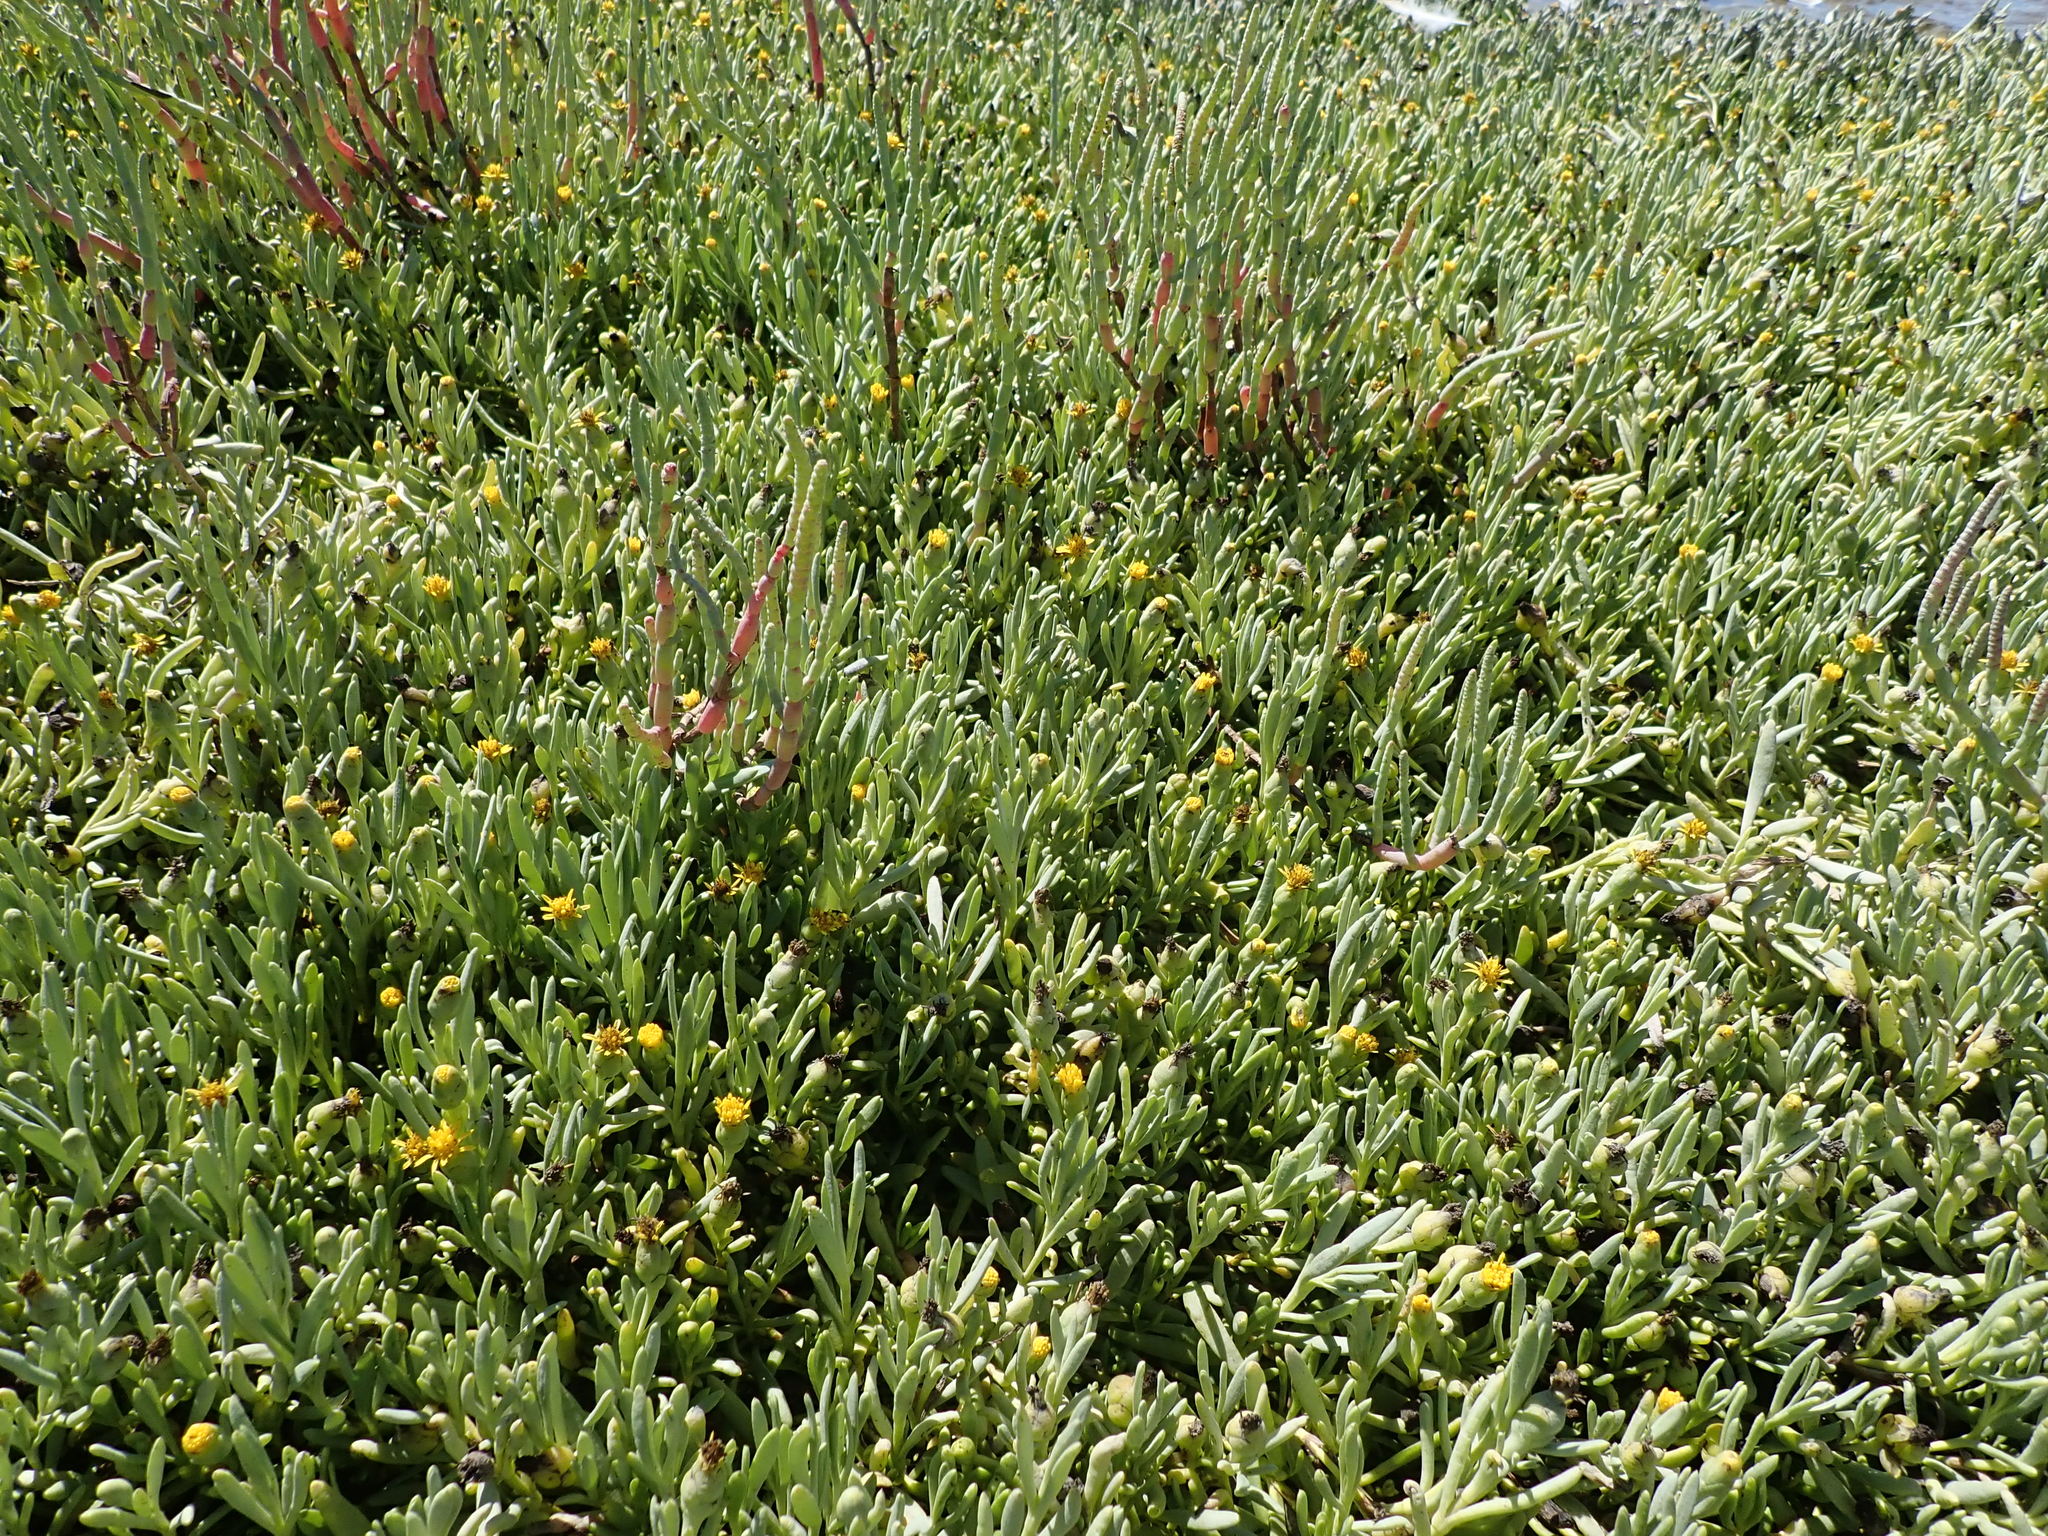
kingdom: Plantae
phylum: Tracheophyta
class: Magnoliopsida
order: Asterales
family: Asteraceae
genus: Jaumea
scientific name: Jaumea carnosa
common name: Fleshy jaumea
